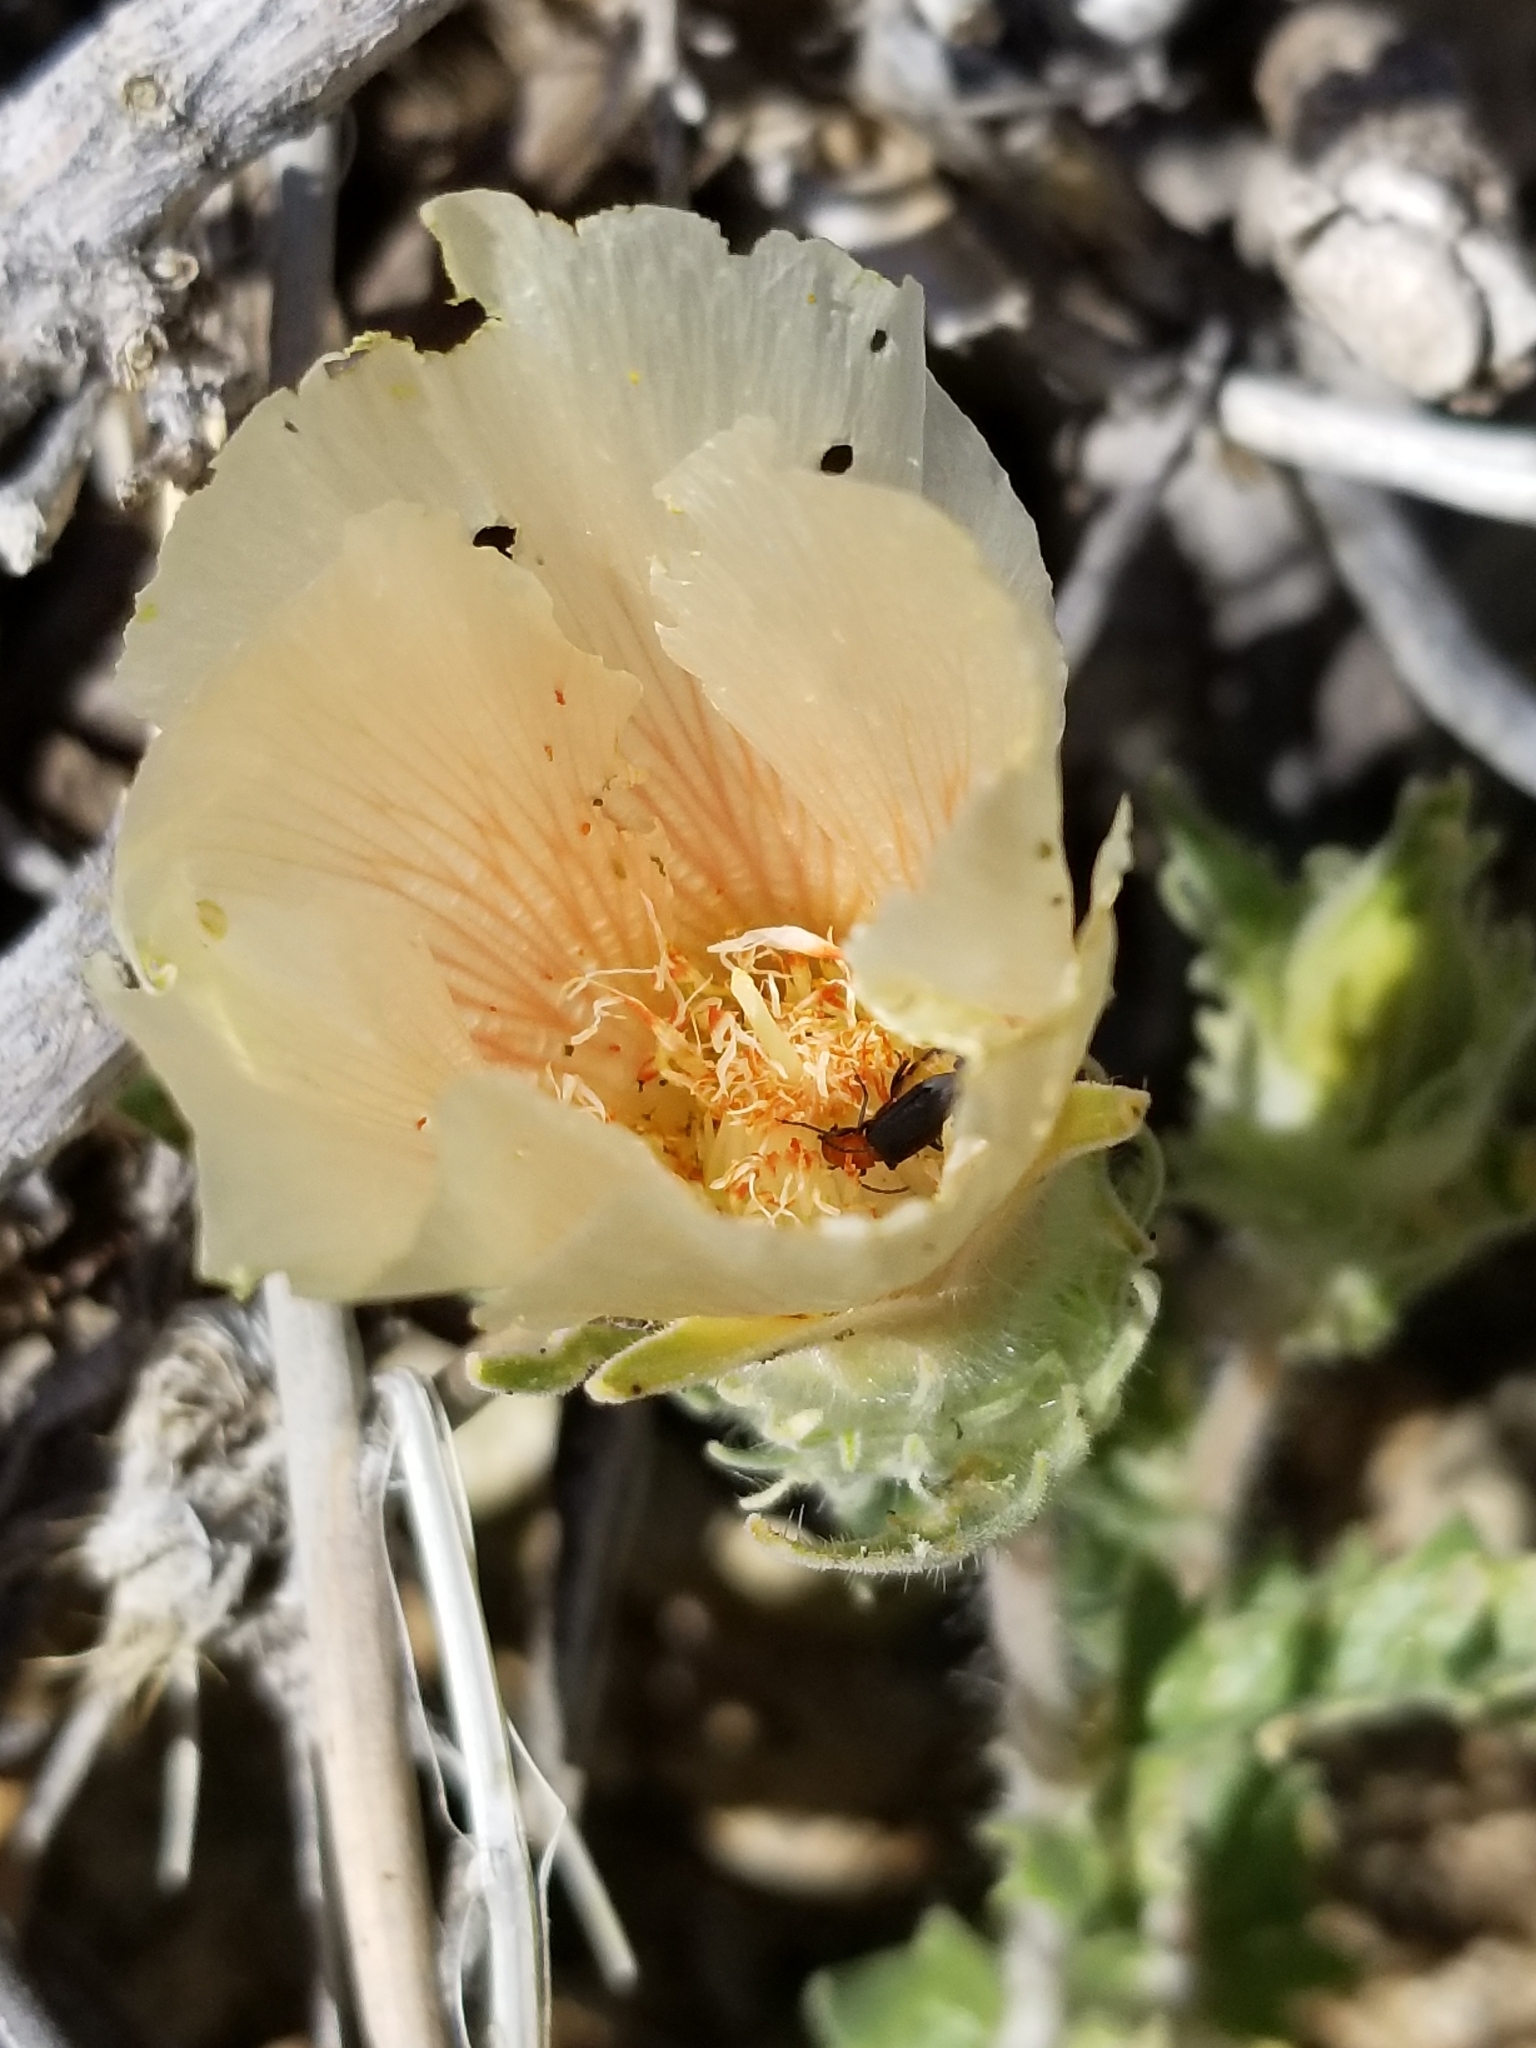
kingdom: Plantae
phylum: Tracheophyta
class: Magnoliopsida
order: Cornales
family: Loasaceae
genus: Mentzelia
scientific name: Mentzelia involucrata
